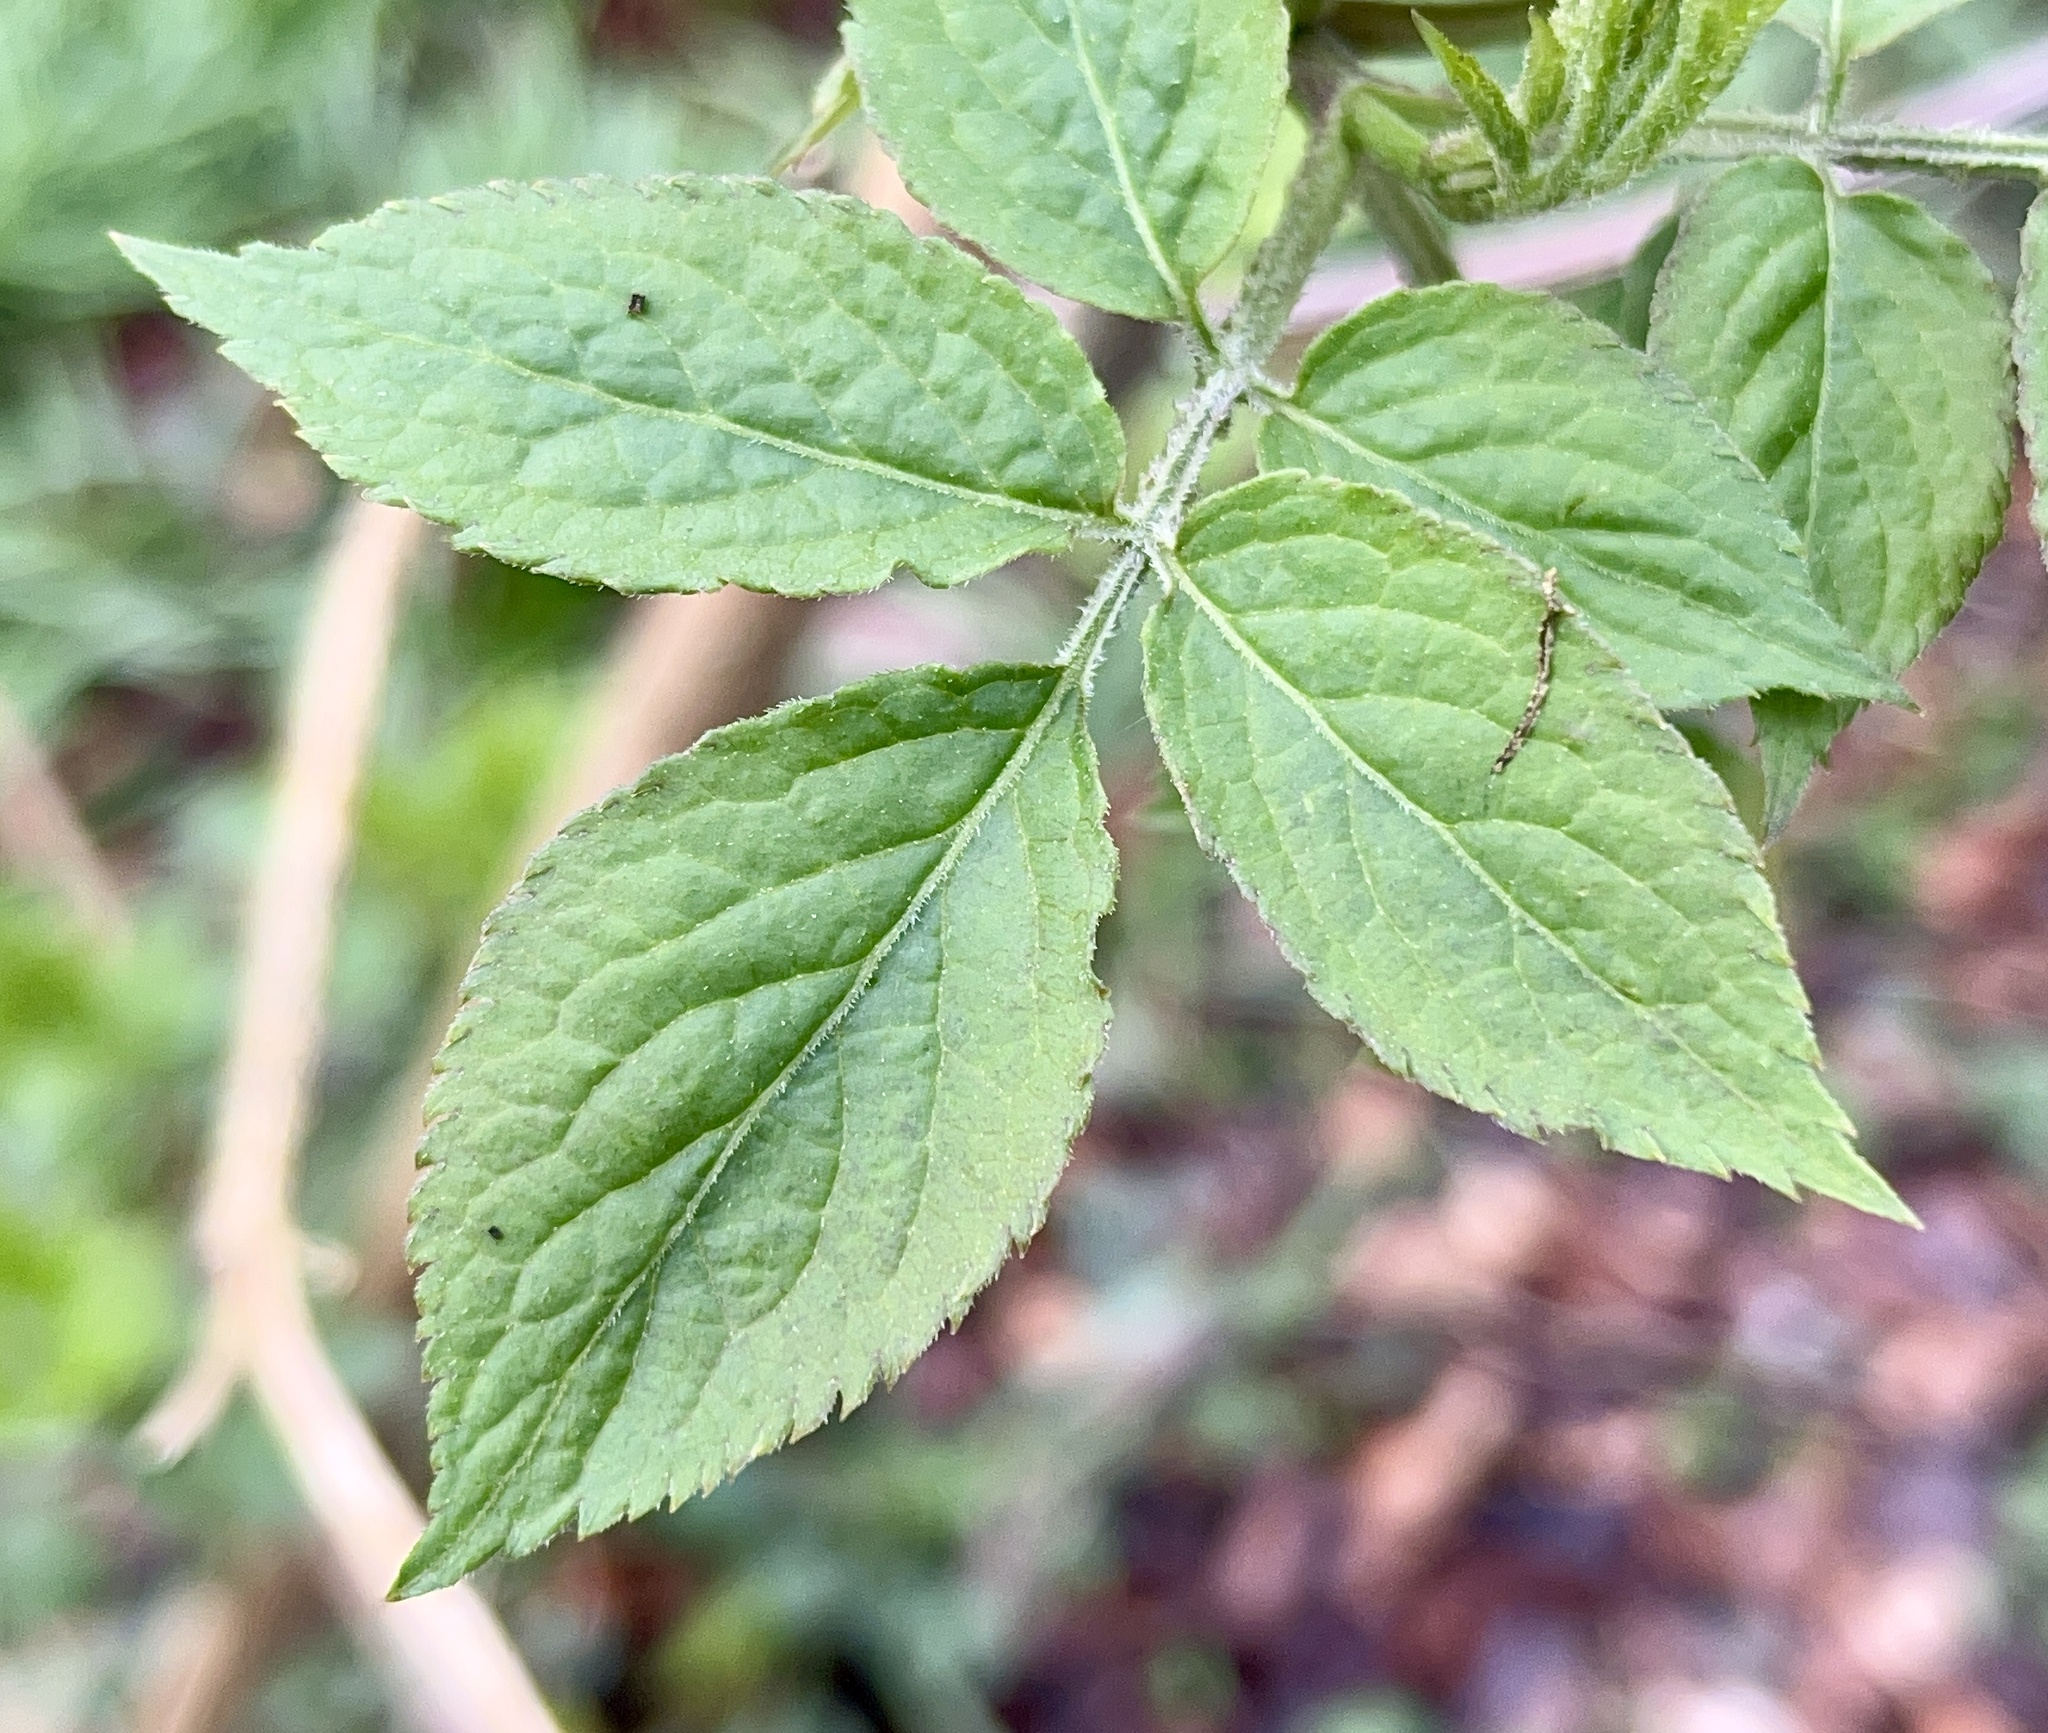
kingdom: Plantae
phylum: Tracheophyta
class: Magnoliopsida
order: Dipsacales
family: Viburnaceae
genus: Sambucus
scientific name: Sambucus nigra
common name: Elder
